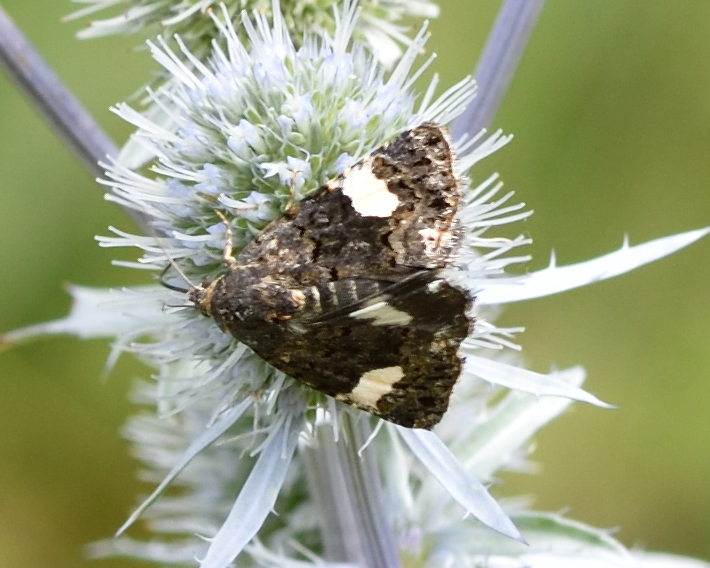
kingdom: Animalia
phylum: Arthropoda
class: Insecta
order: Lepidoptera
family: Erebidae
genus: Tyta
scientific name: Tyta luctuosa
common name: Four-spotted
